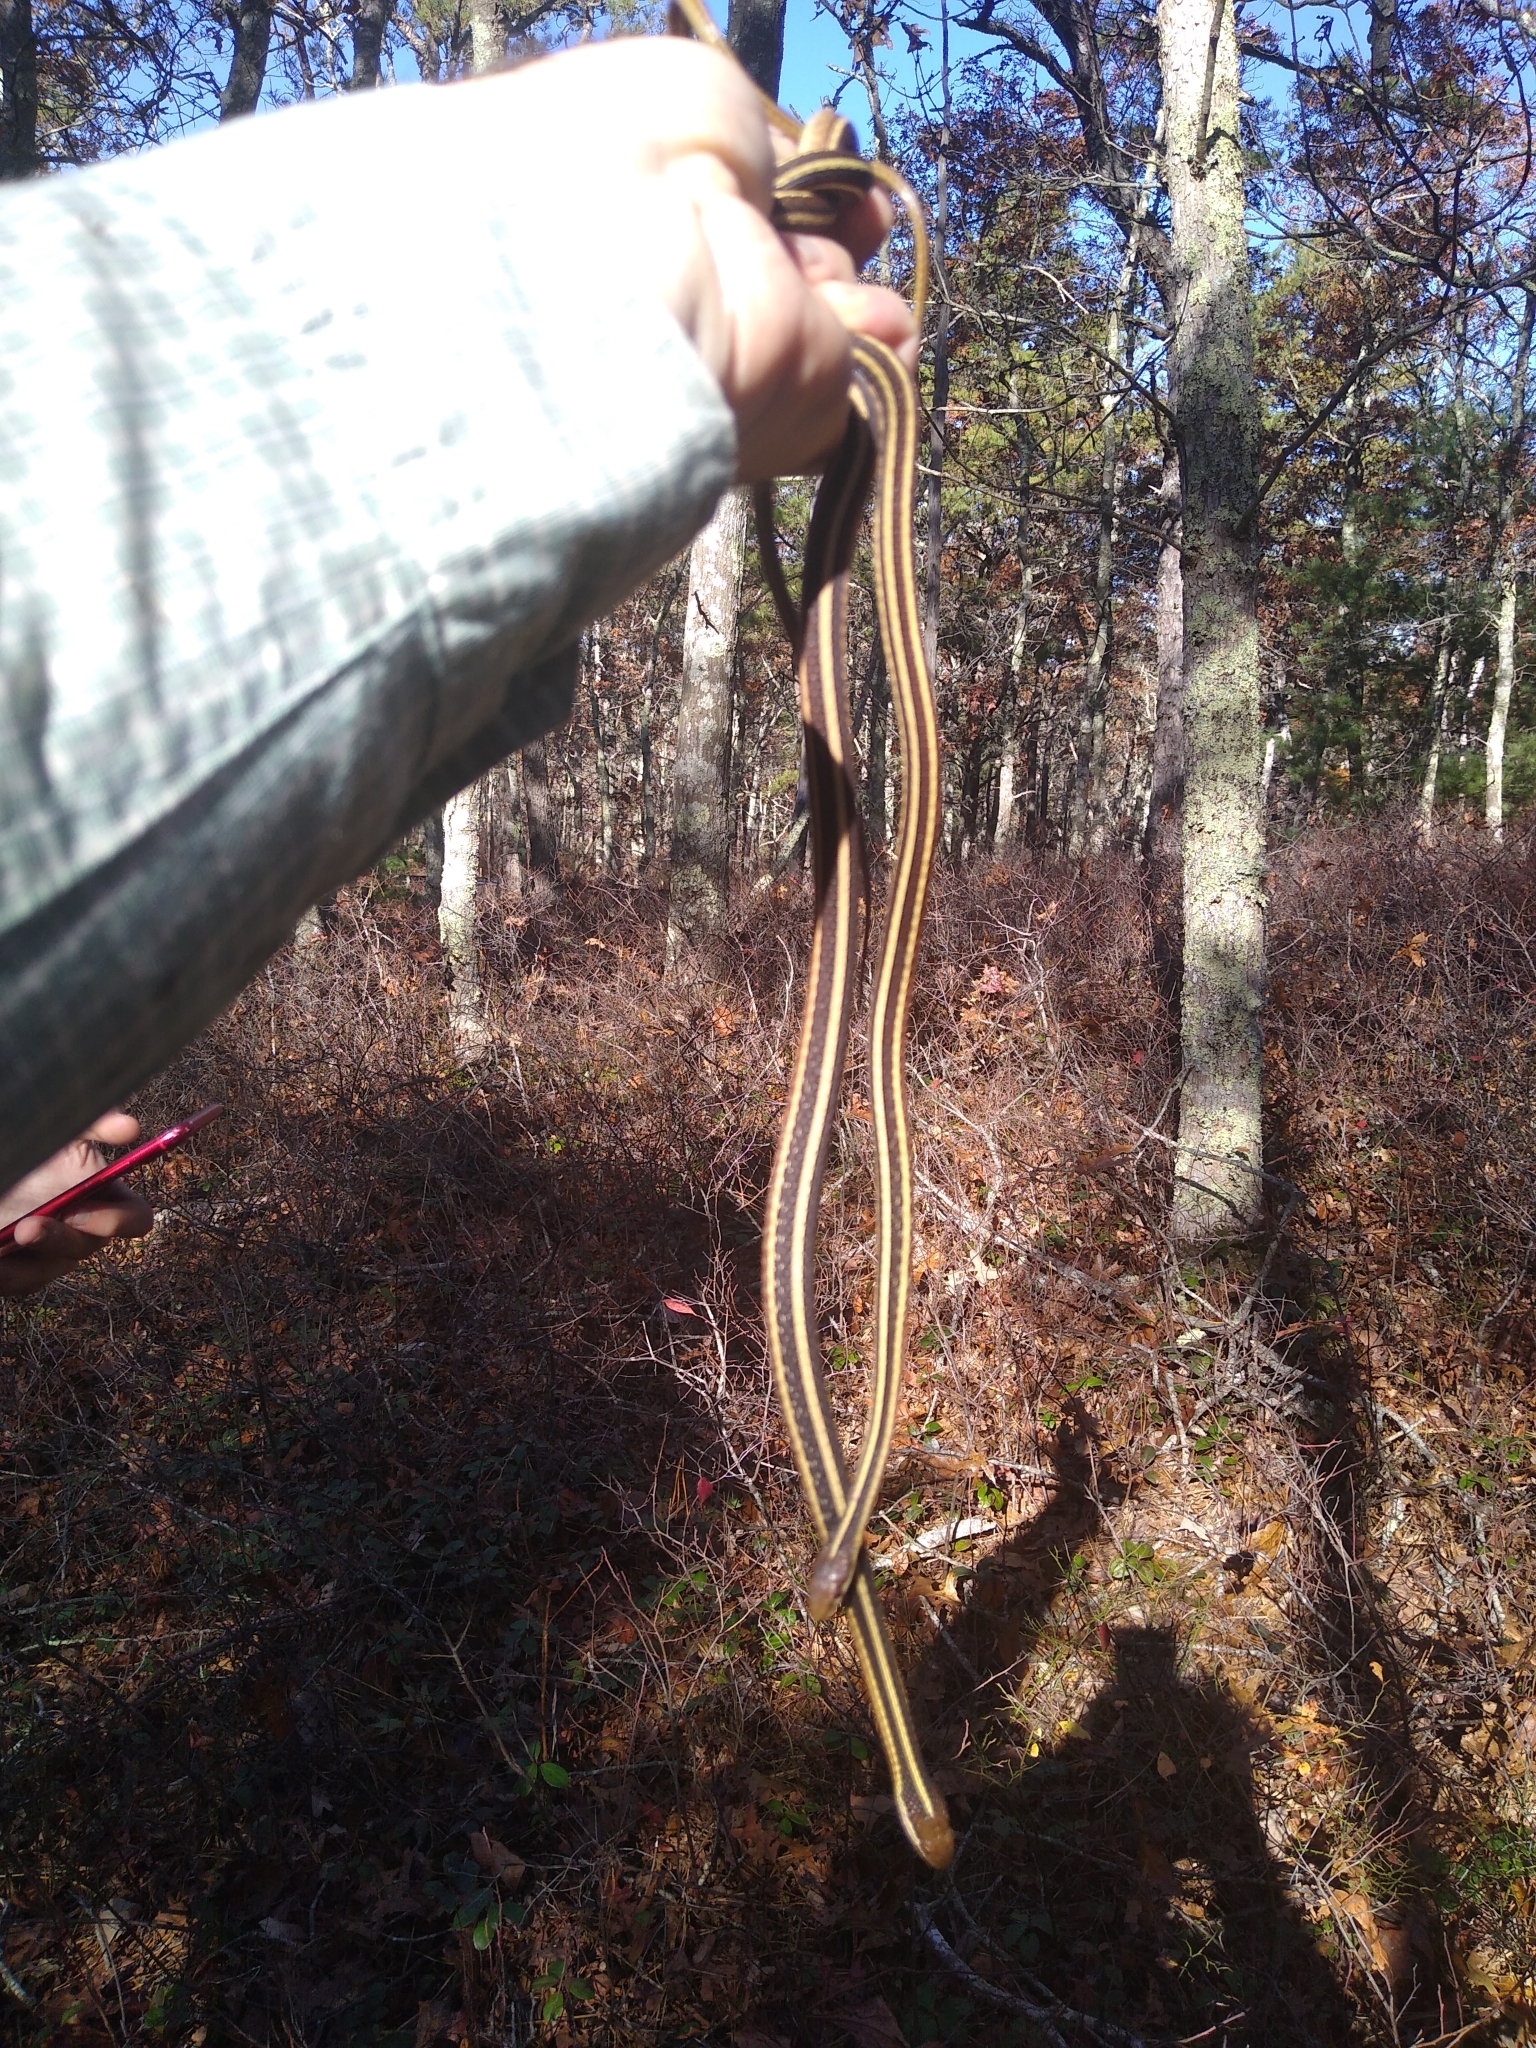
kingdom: Animalia
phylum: Chordata
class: Squamata
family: Colubridae
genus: Thamnophis
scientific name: Thamnophis saurita
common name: Eastern ribbonsnake
